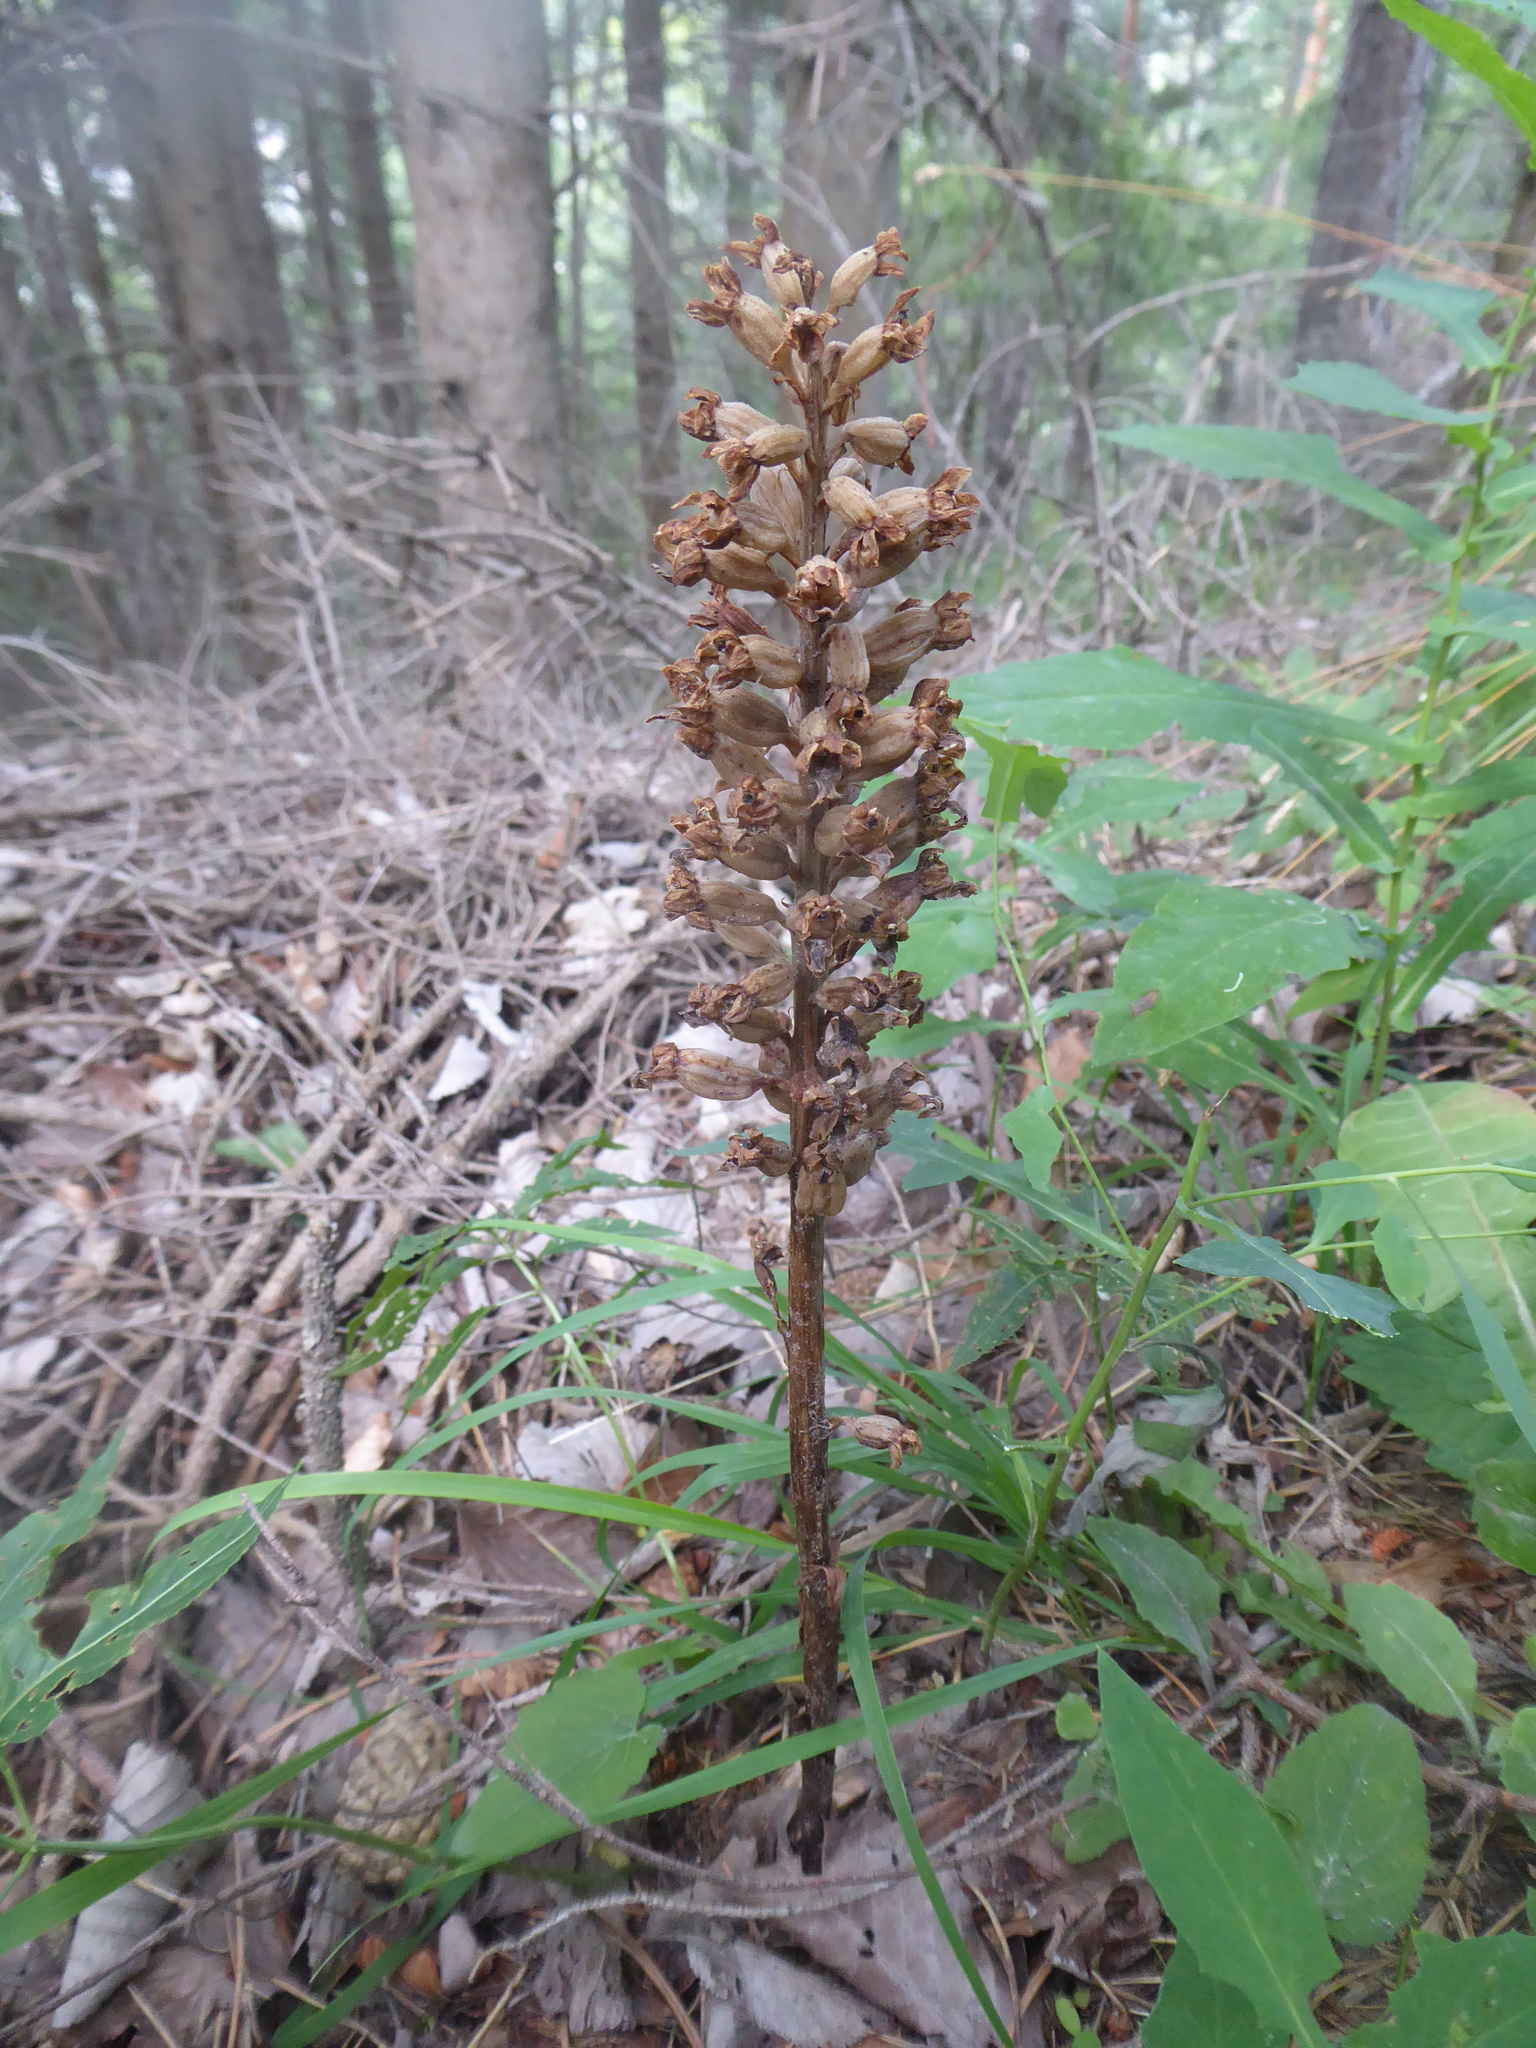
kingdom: Plantae
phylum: Tracheophyta
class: Liliopsida
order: Asparagales
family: Orchidaceae
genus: Neottia
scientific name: Neottia nidus-avis
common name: Bird's-nest orchid
